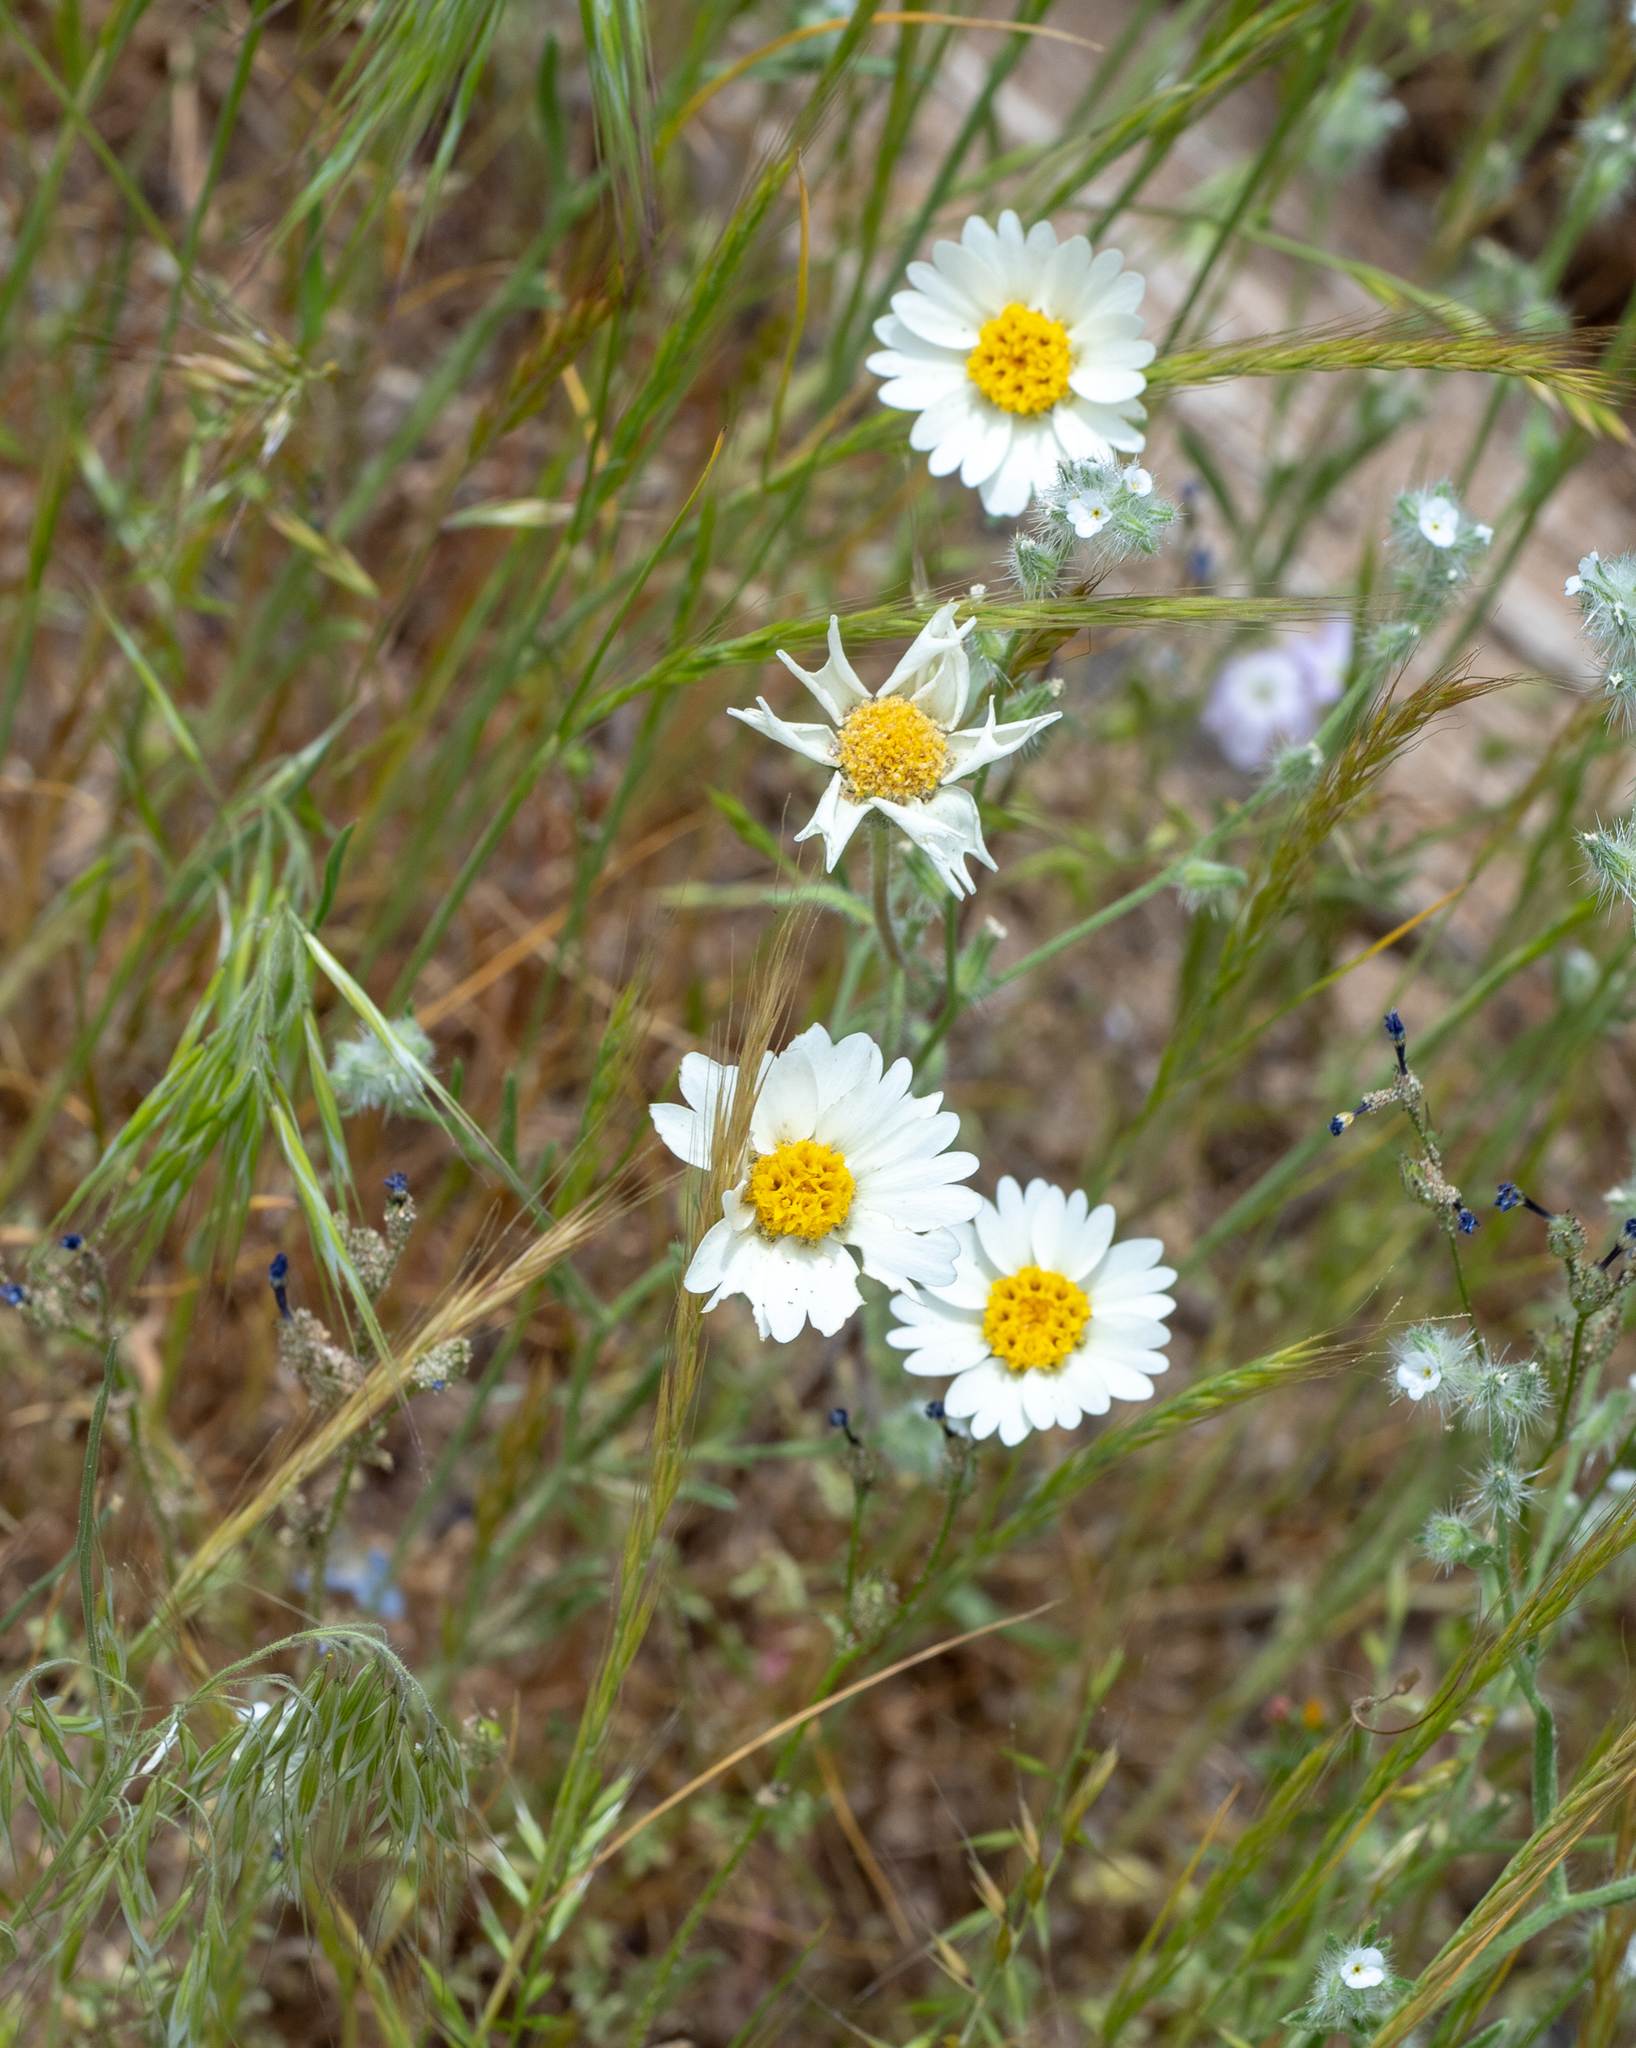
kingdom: Plantae
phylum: Tracheophyta
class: Magnoliopsida
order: Asterales
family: Asteraceae
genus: Layia
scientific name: Layia glandulosa
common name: White layia
